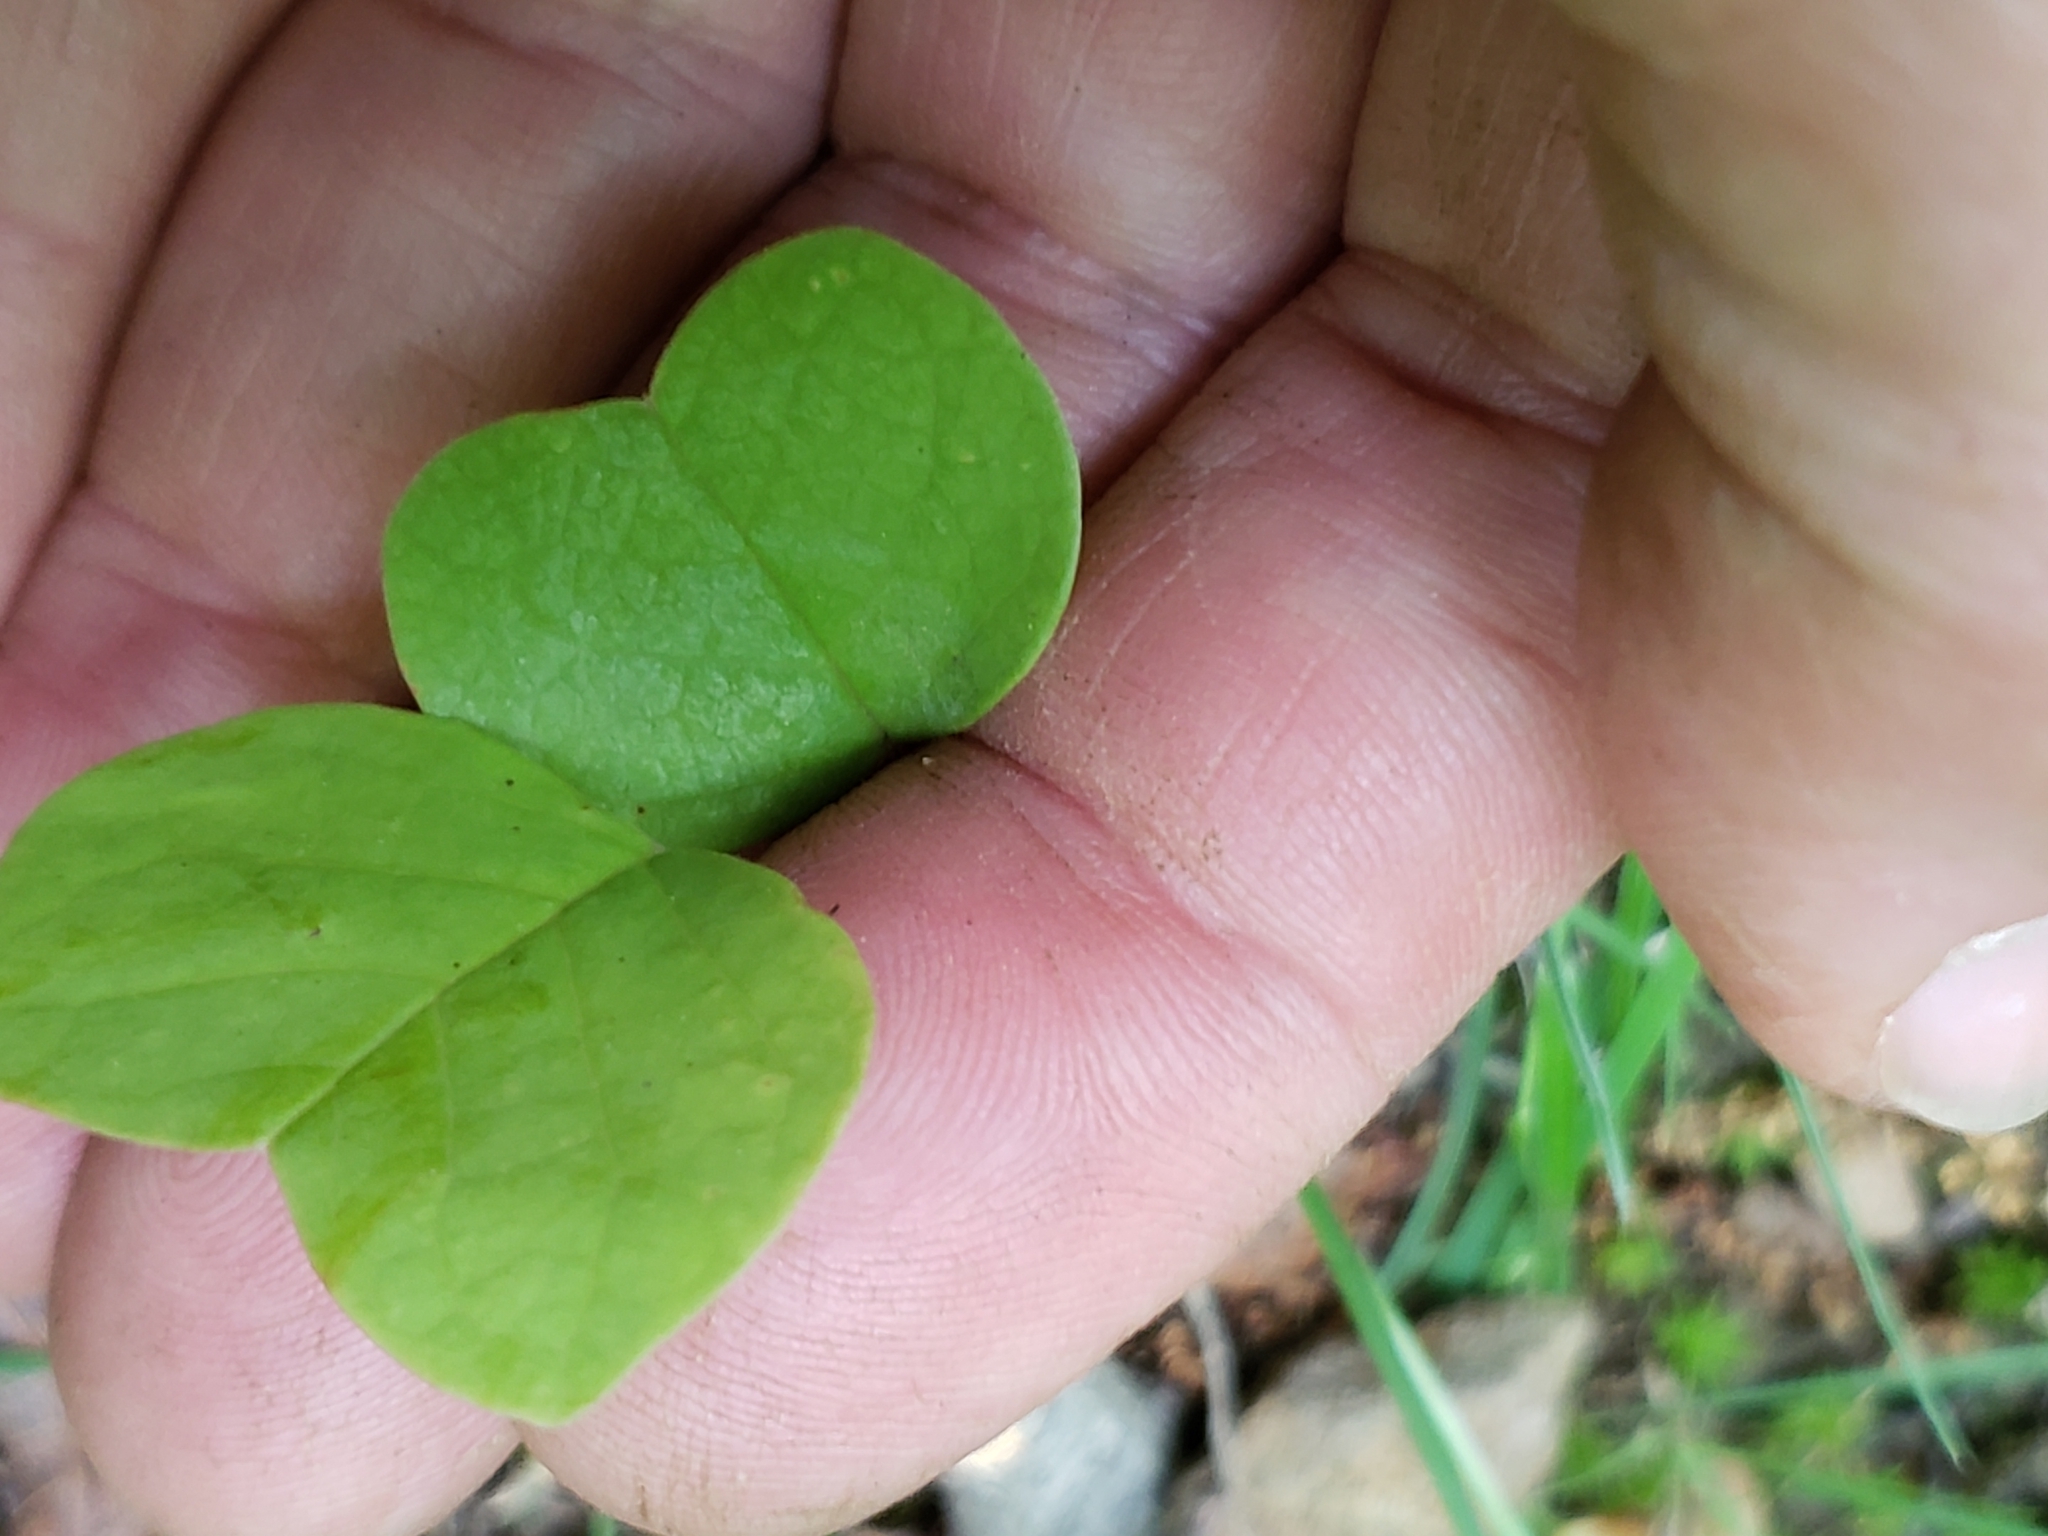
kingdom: Plantae
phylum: Tracheophyta
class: Magnoliopsida
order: Magnoliales
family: Magnoliaceae
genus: Liriodendron
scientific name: Liriodendron tulipifera
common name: Tulip tree
